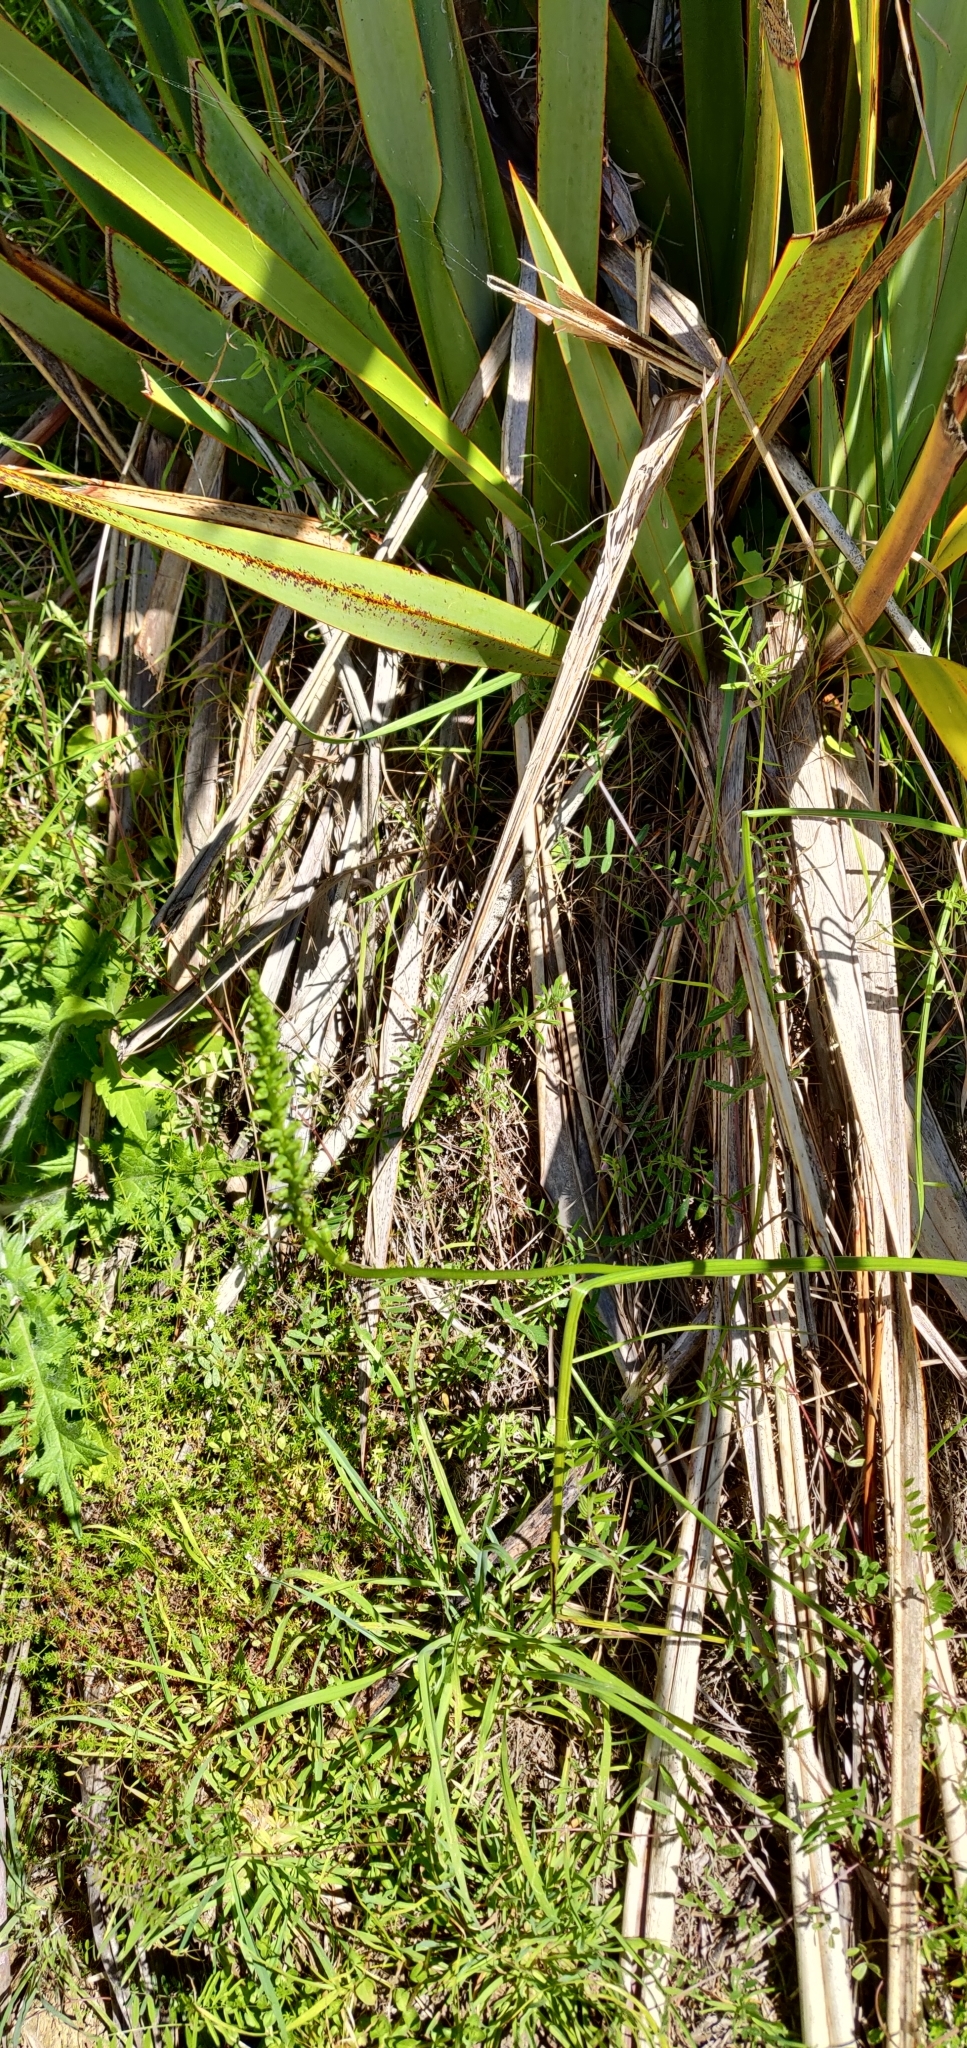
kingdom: Plantae
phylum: Tracheophyta
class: Liliopsida
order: Asparagales
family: Orchidaceae
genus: Microtis
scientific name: Microtis unifolia
